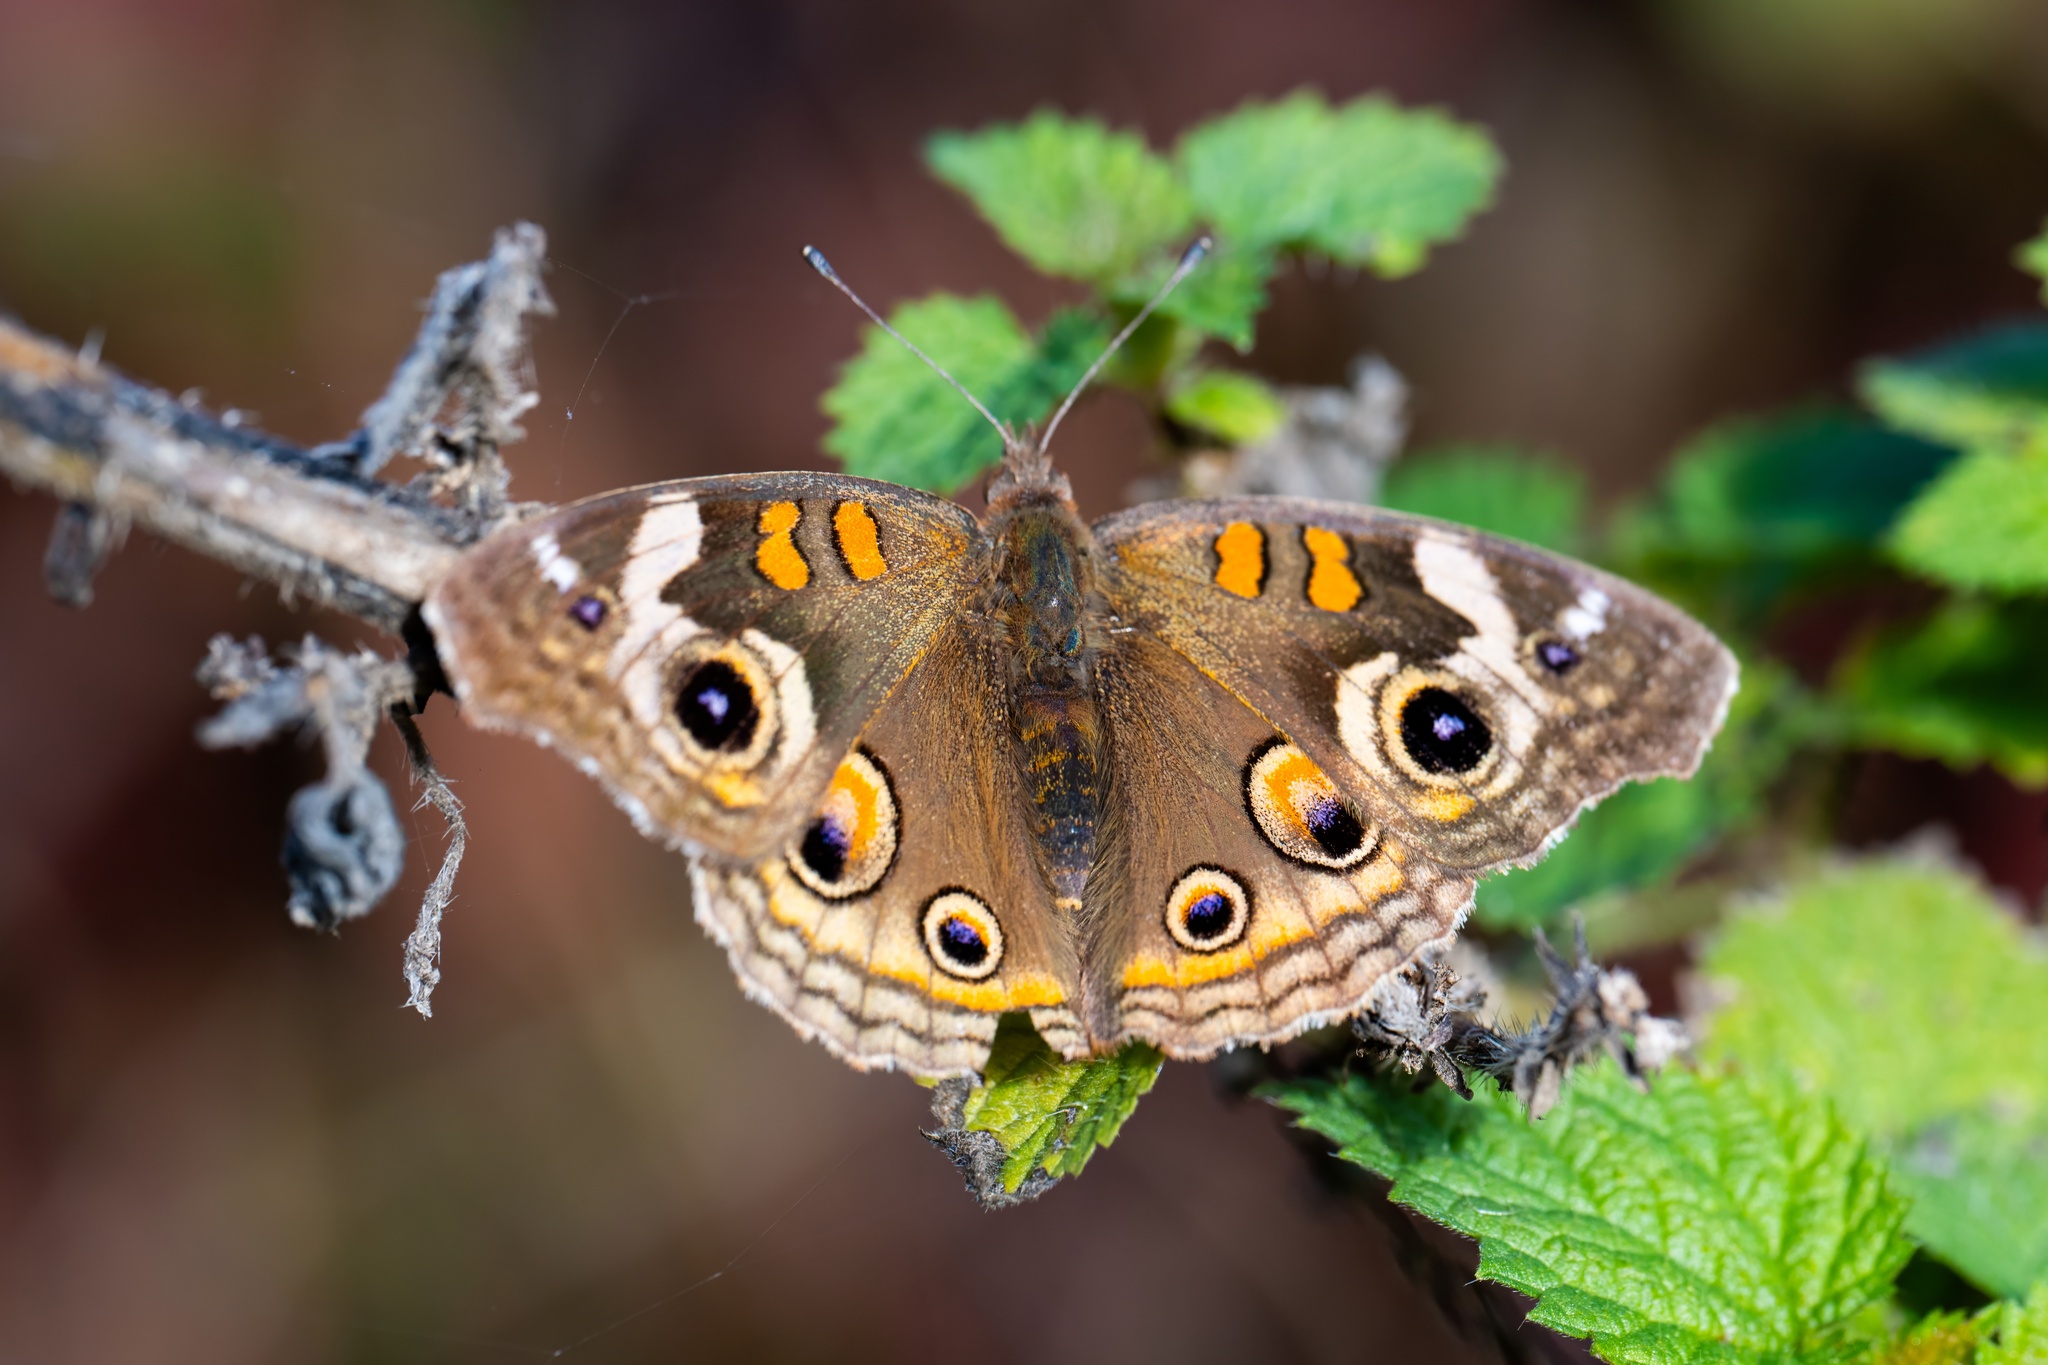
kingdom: Animalia
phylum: Arthropoda
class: Insecta
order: Lepidoptera
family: Nymphalidae
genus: Junonia
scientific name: Junonia grisea
